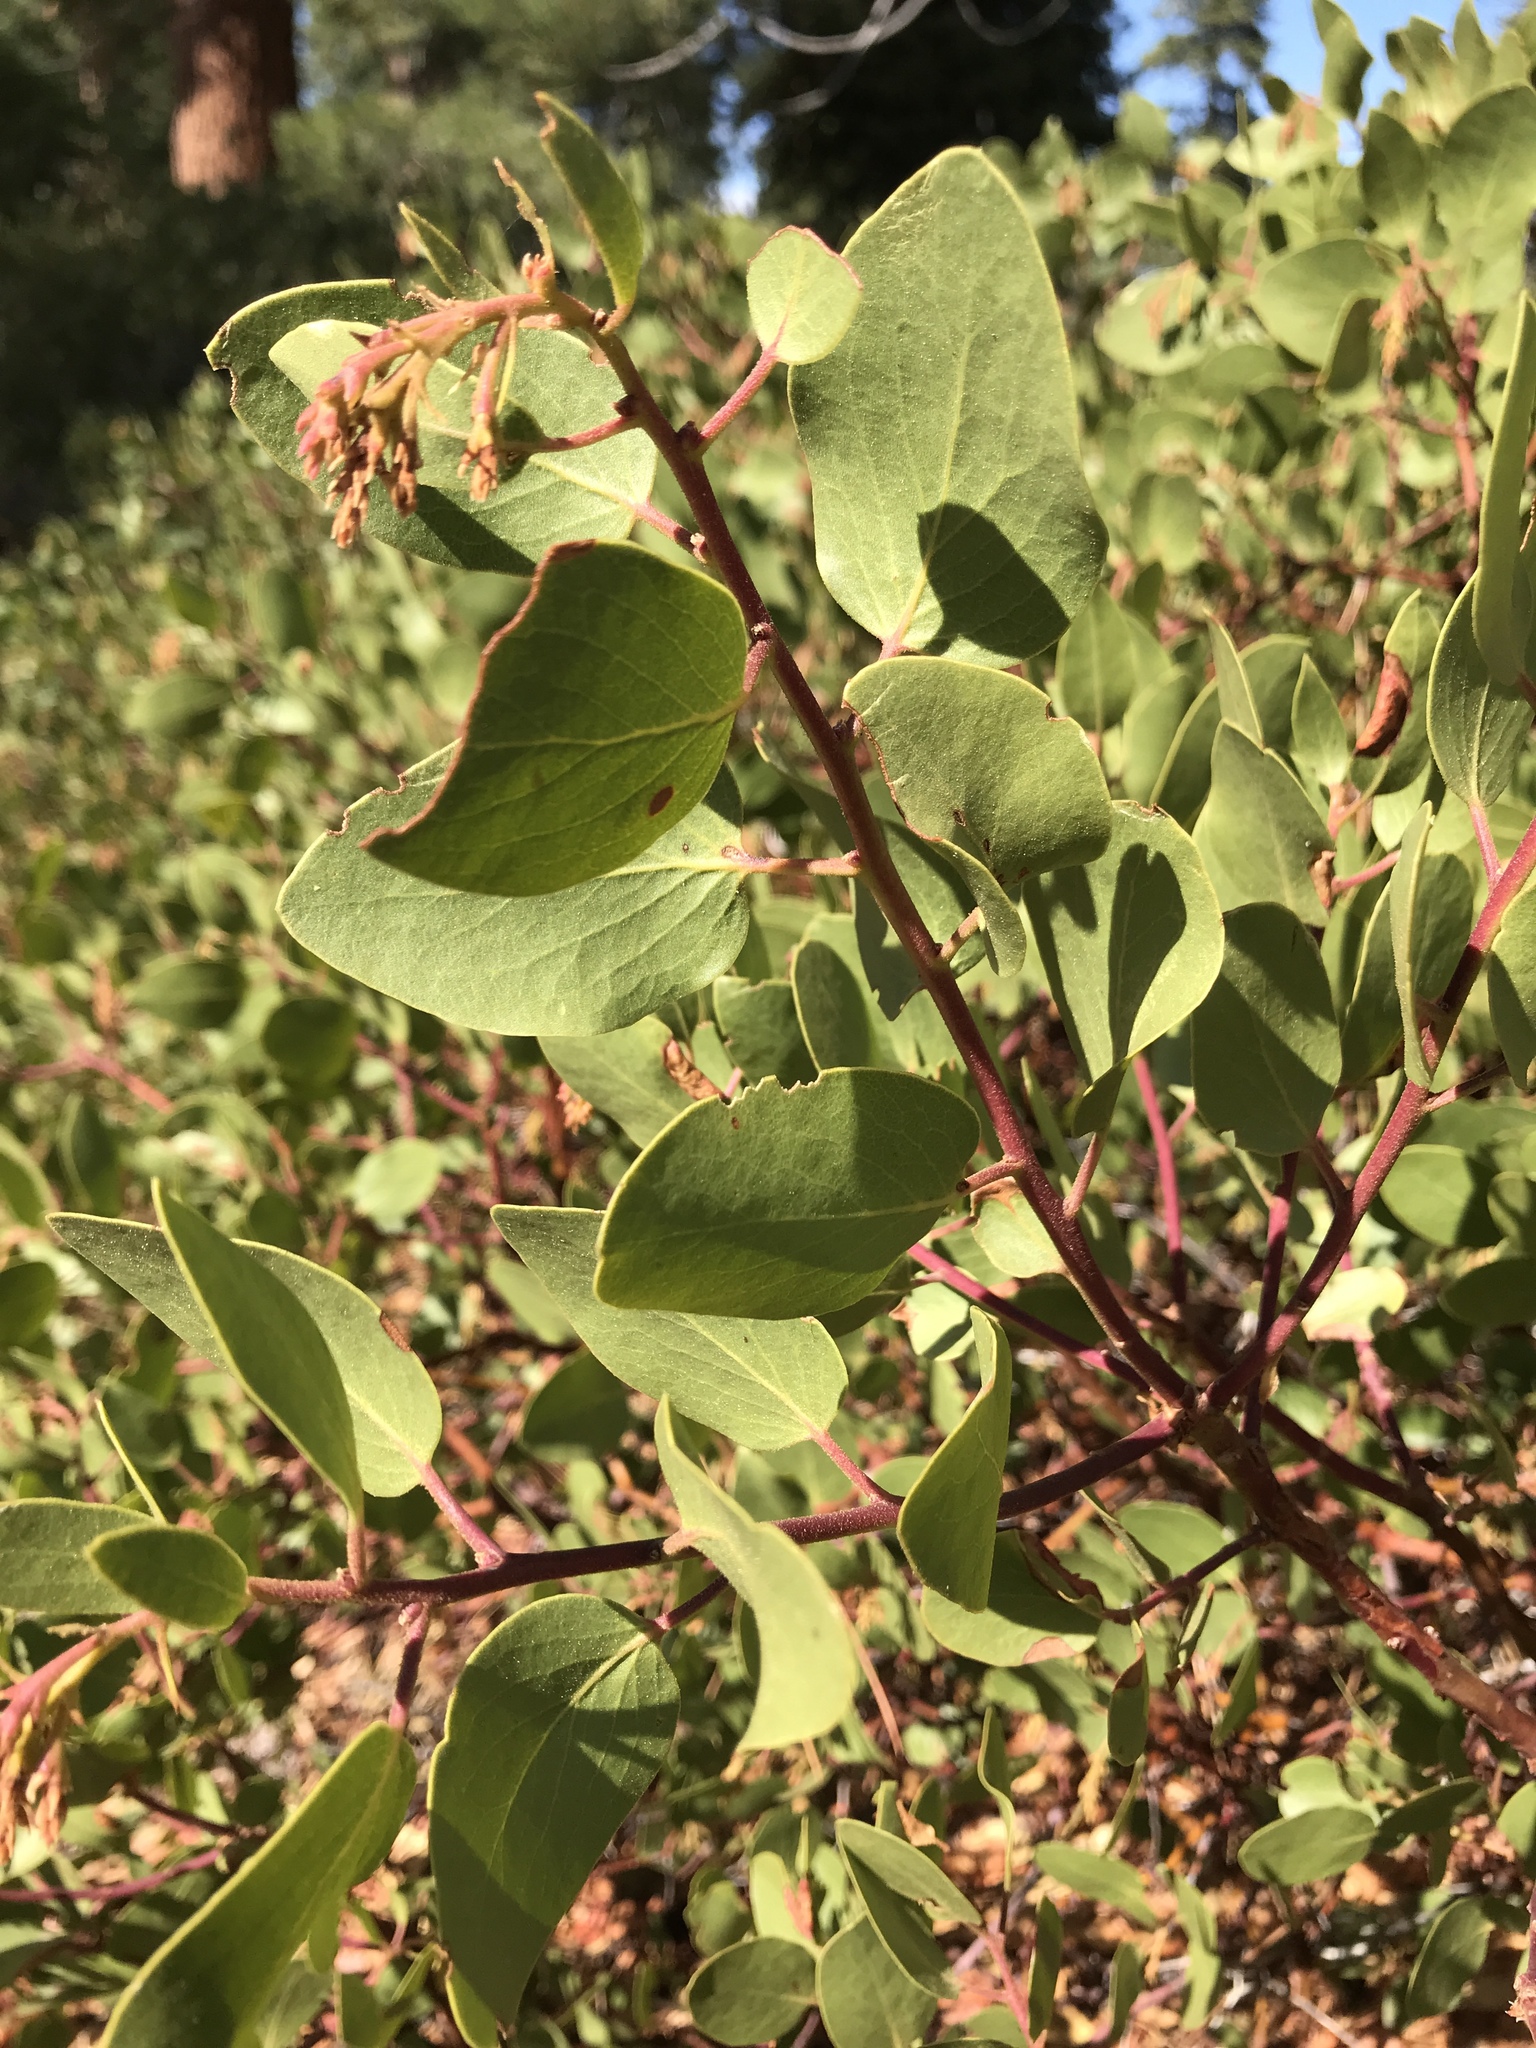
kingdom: Plantae
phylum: Tracheophyta
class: Magnoliopsida
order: Ericales
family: Ericaceae
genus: Arctostaphylos
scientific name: Arctostaphylos patula
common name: Green-leaf manzanita
